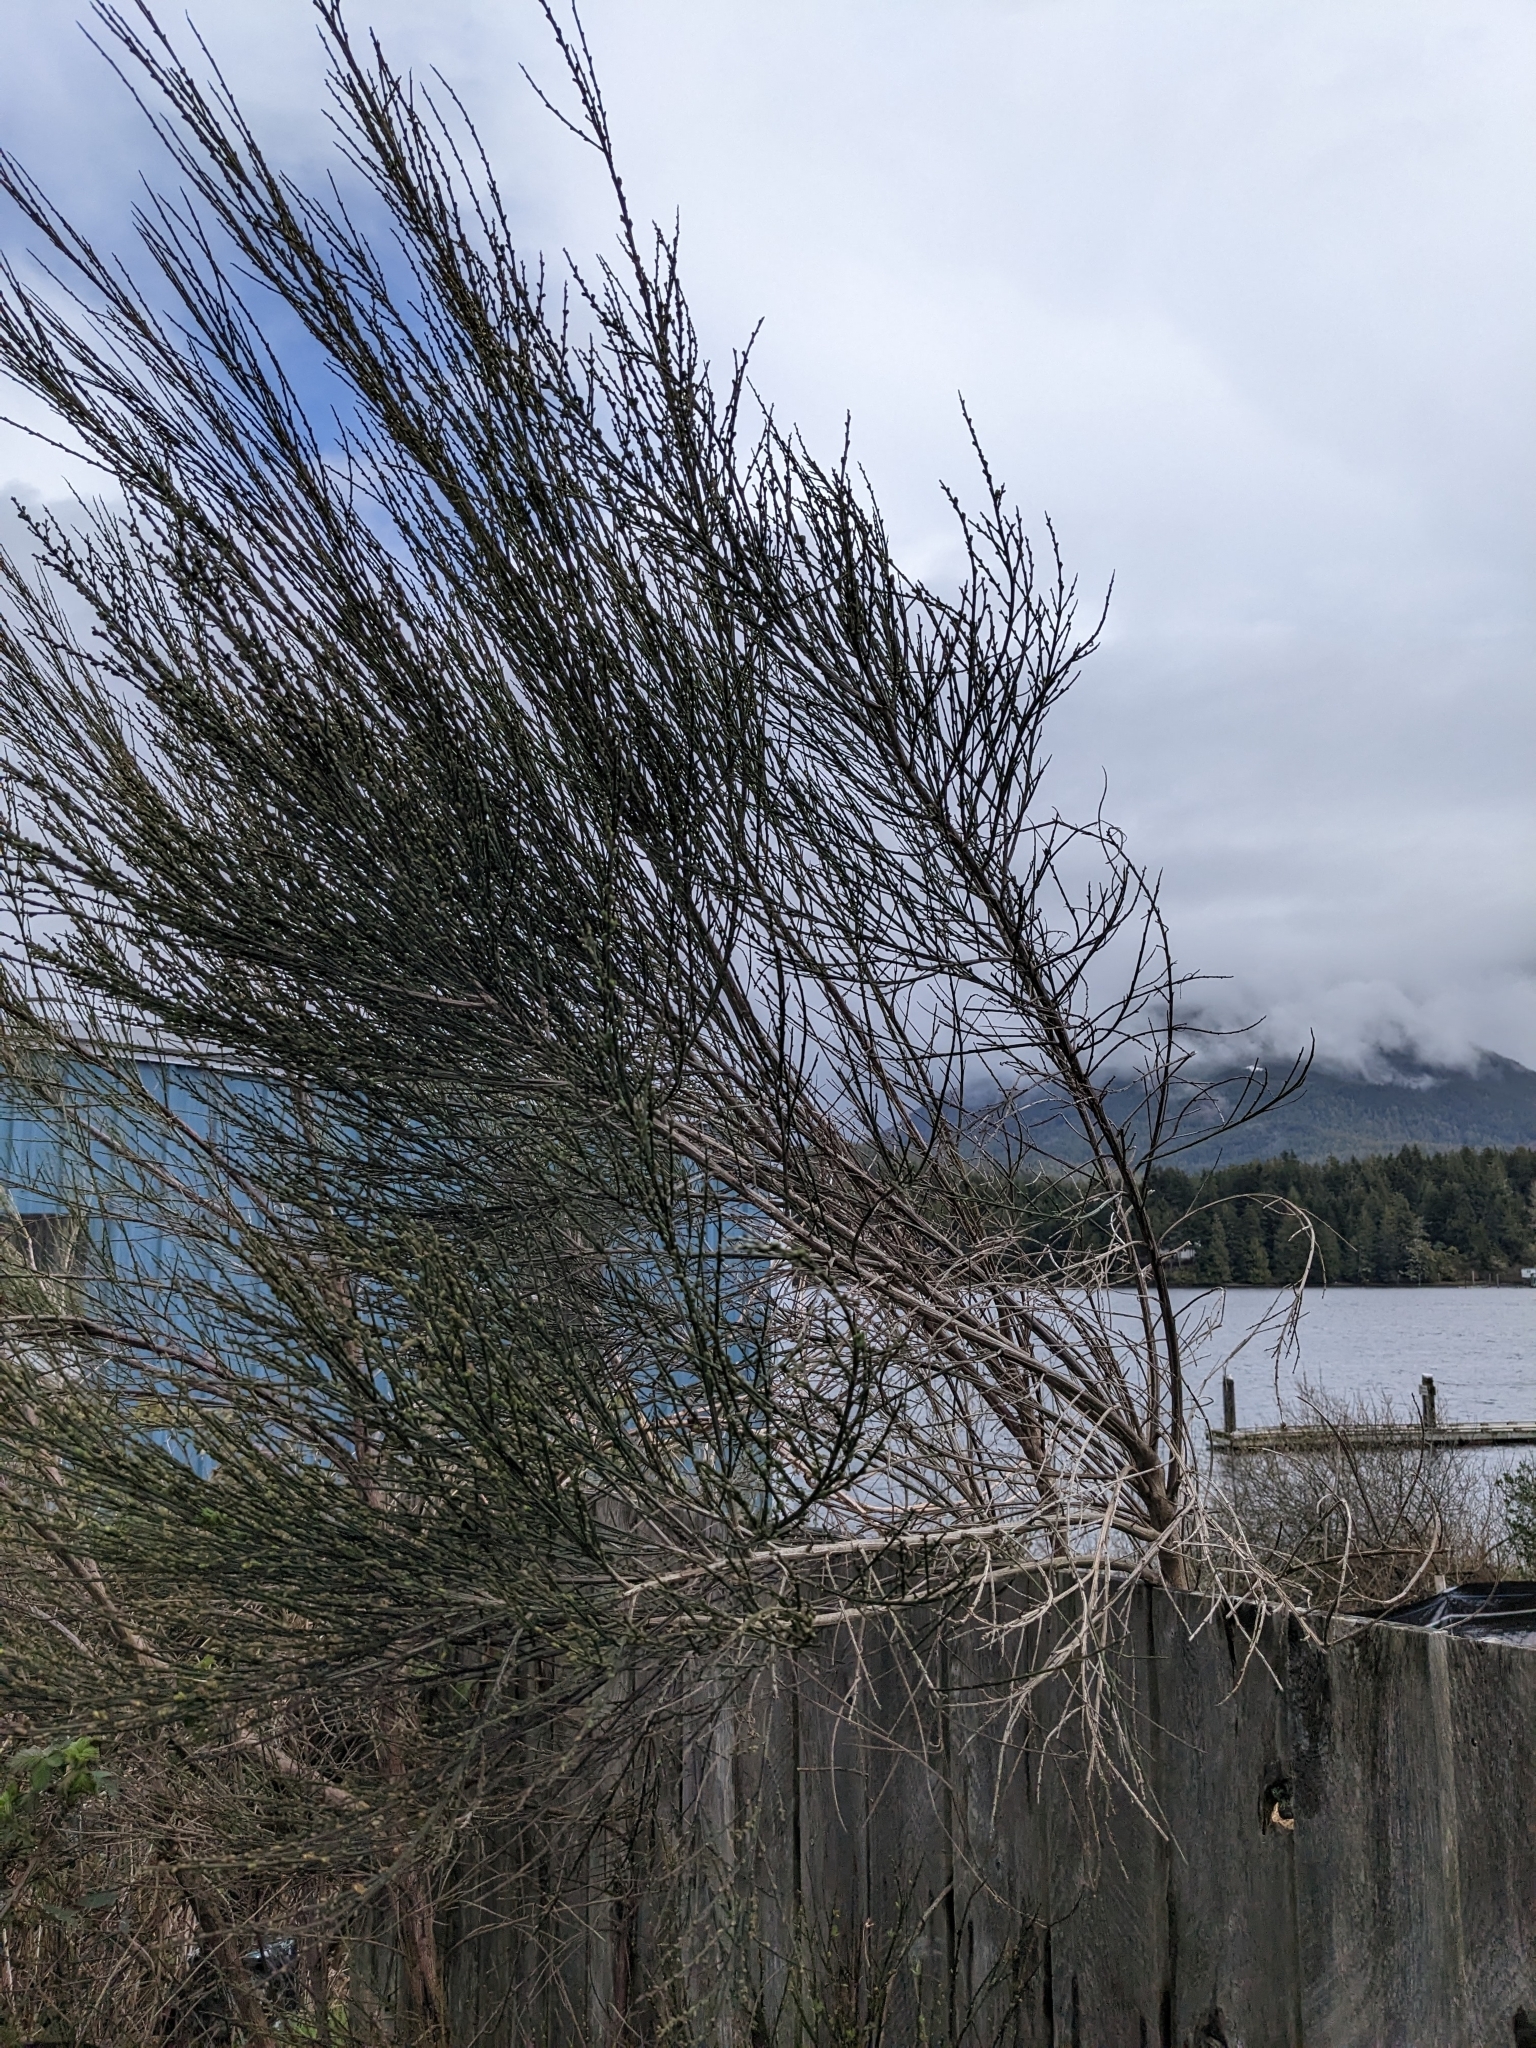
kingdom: Plantae
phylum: Tracheophyta
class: Magnoliopsida
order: Fabales
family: Fabaceae
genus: Cytisus
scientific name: Cytisus scoparius
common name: Scotch broom
